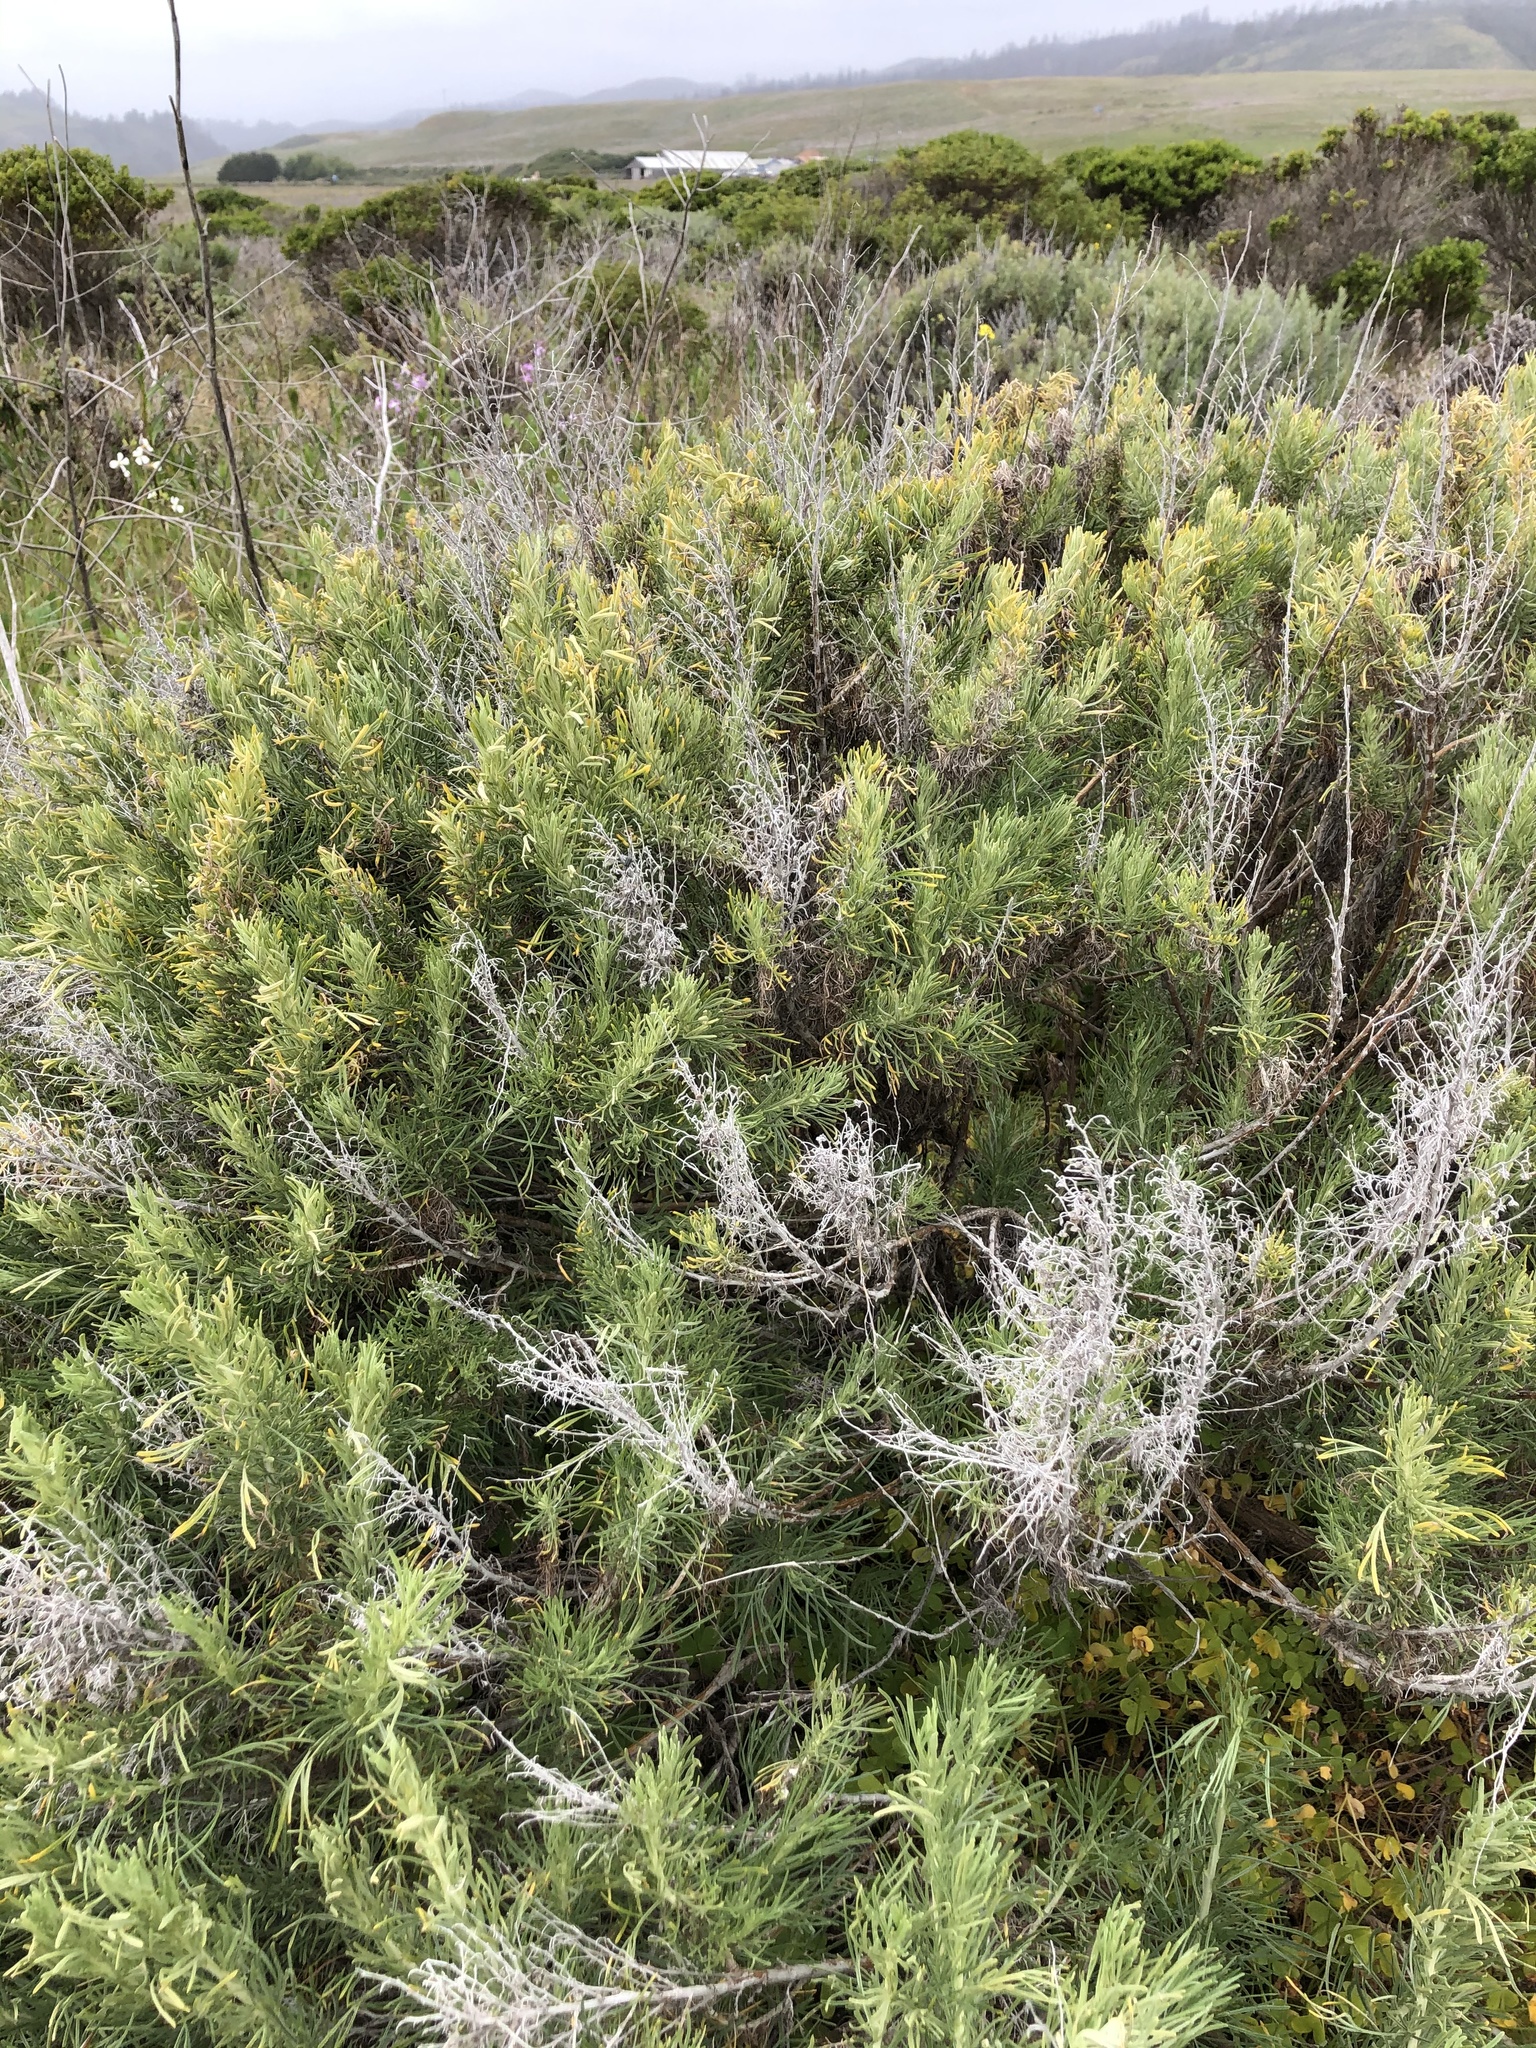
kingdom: Plantae
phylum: Tracheophyta
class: Magnoliopsida
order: Asterales
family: Asteraceae
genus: Artemisia
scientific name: Artemisia californica
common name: California sagebrush
